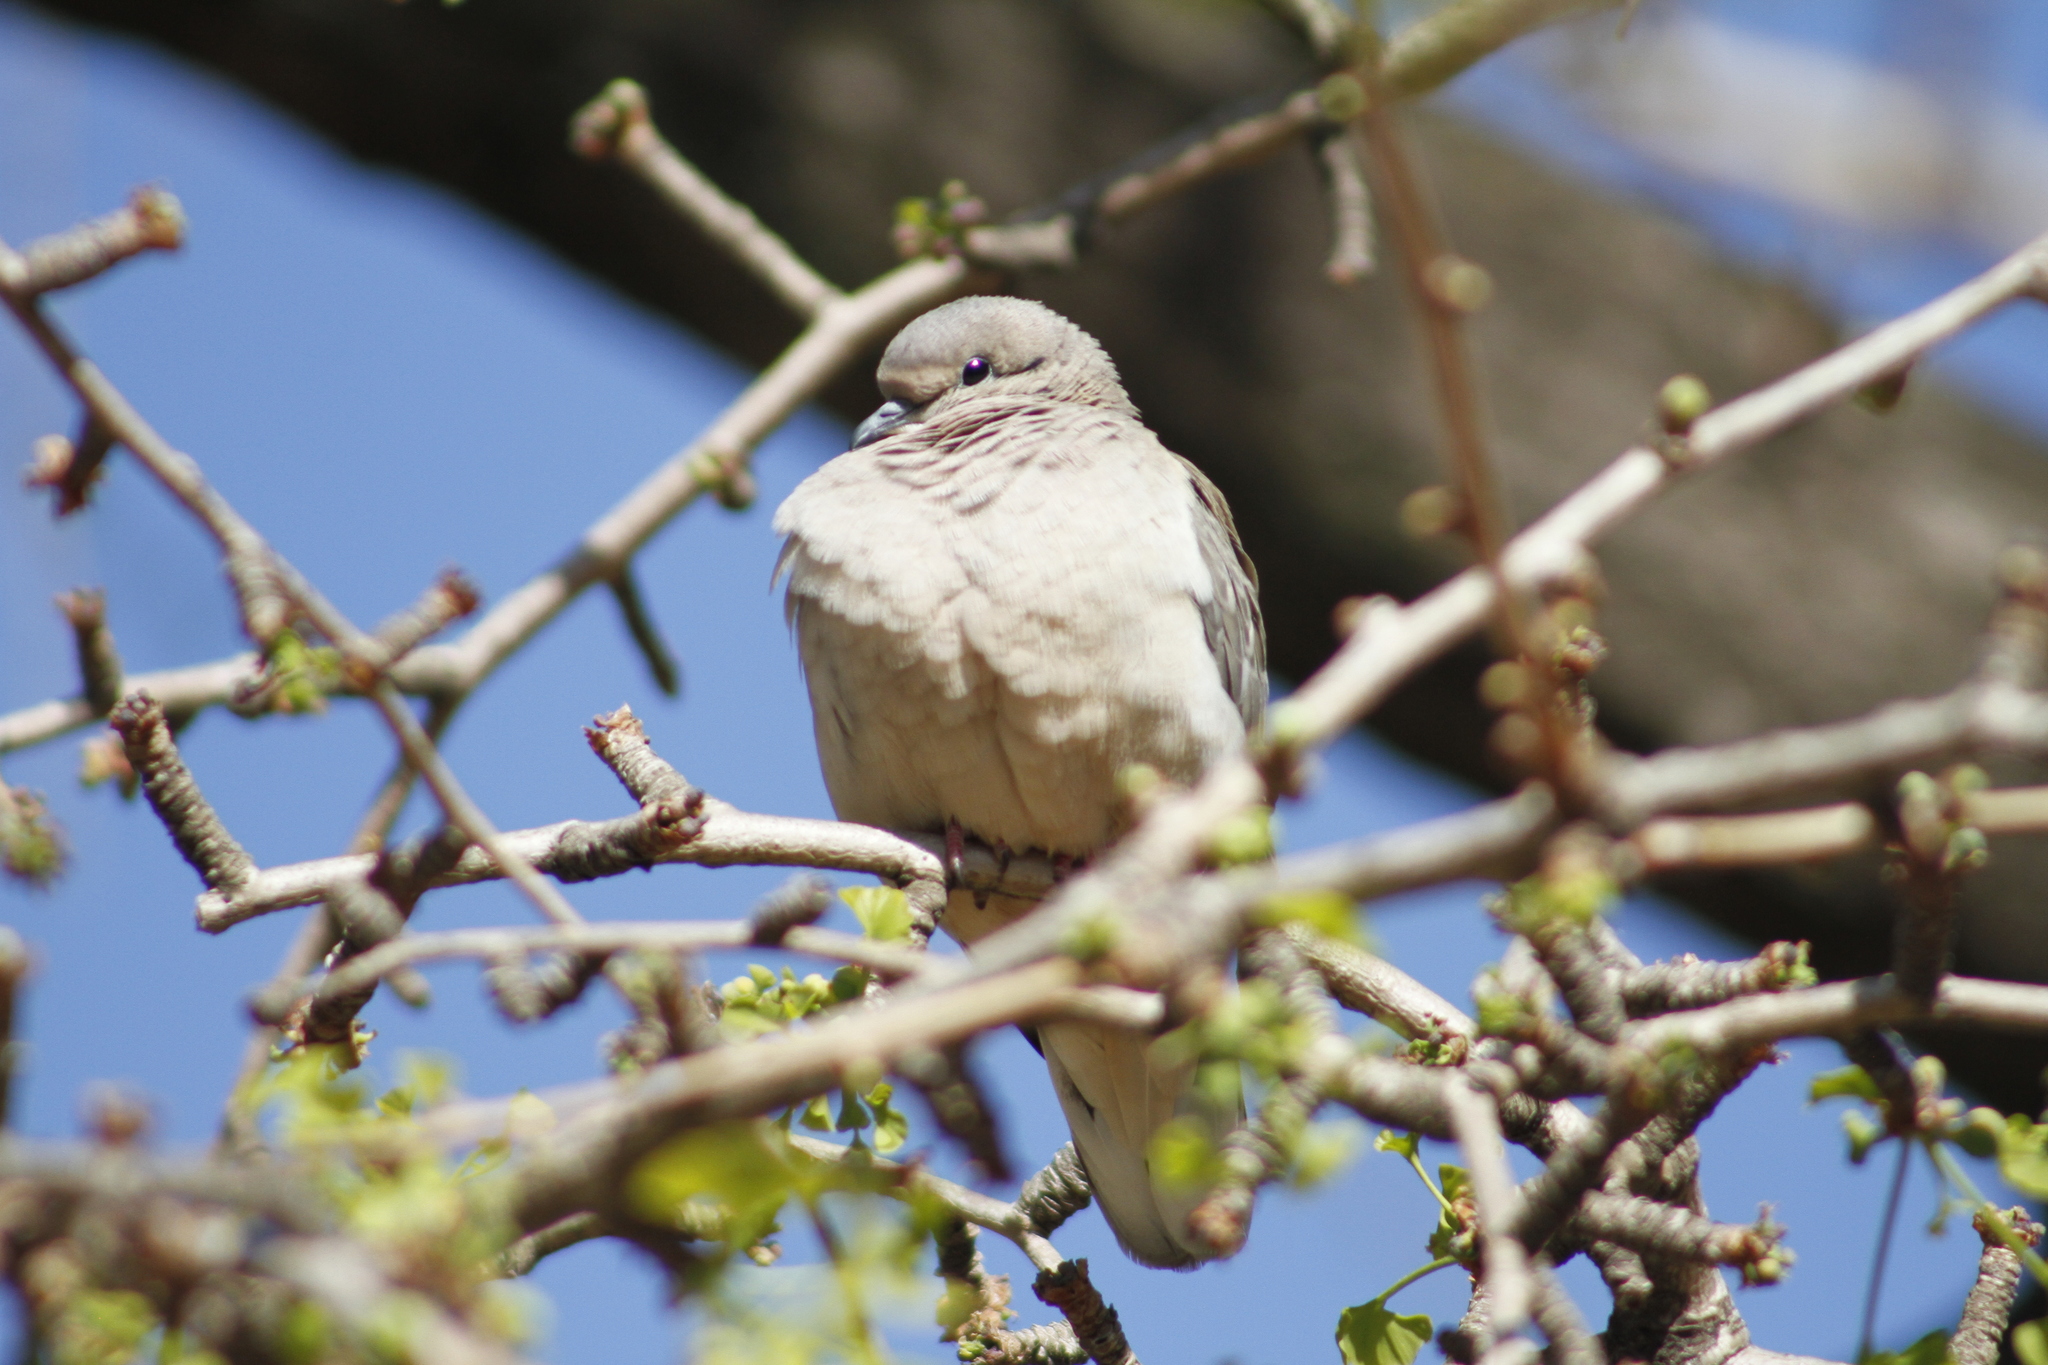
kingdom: Animalia
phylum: Chordata
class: Aves
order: Columbiformes
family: Columbidae
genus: Zenaida
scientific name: Zenaida auriculata
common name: Eared dove
